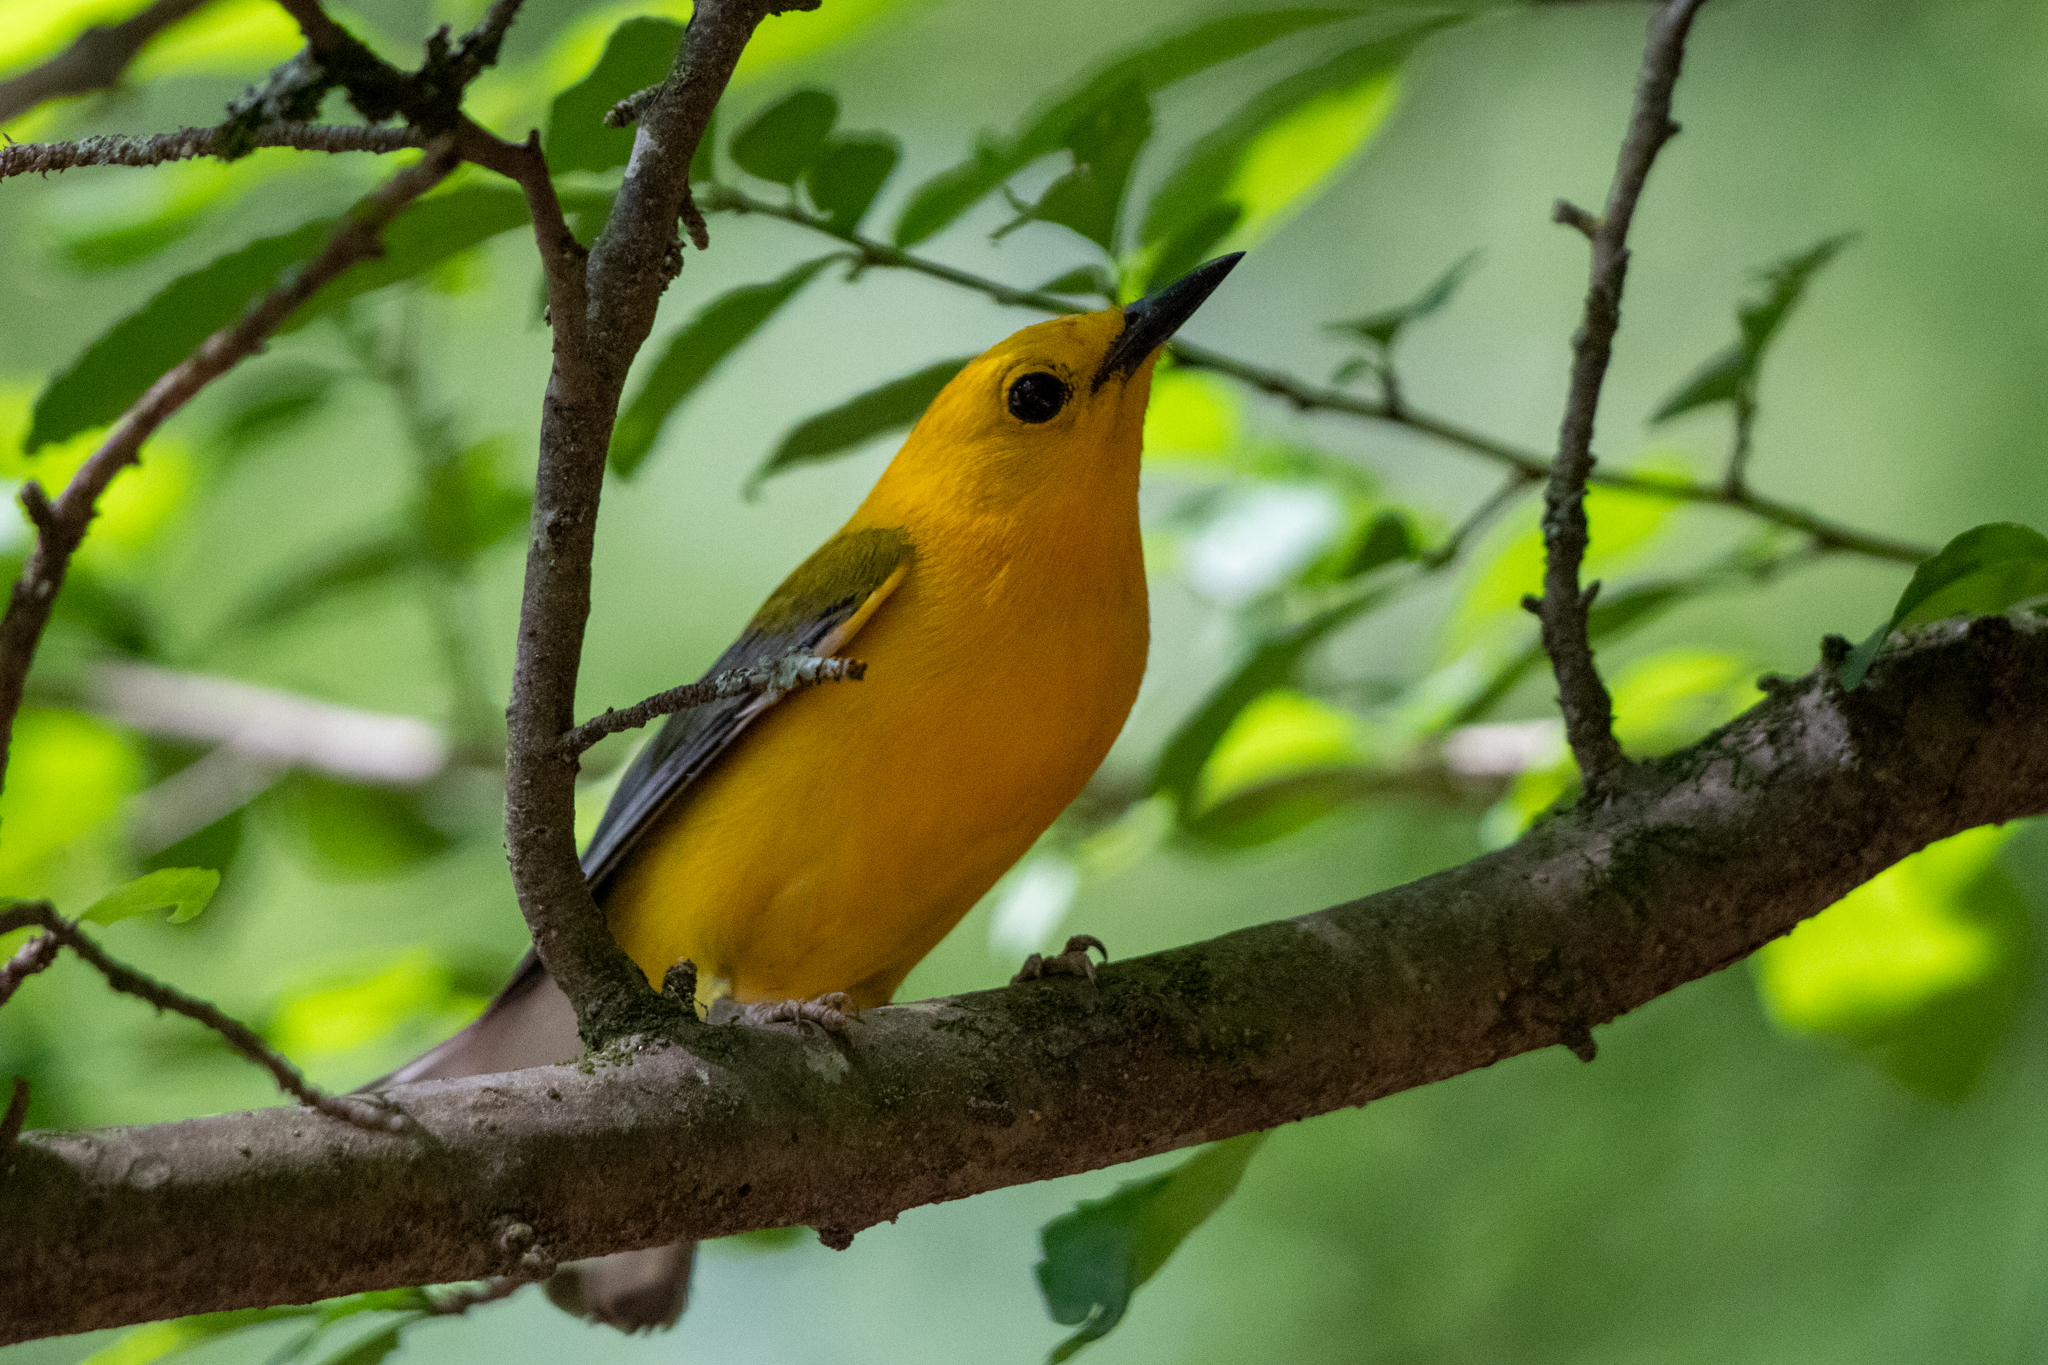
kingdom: Animalia
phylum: Chordata
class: Aves
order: Passeriformes
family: Parulidae
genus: Protonotaria
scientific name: Protonotaria citrea
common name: Prothonotary warbler
